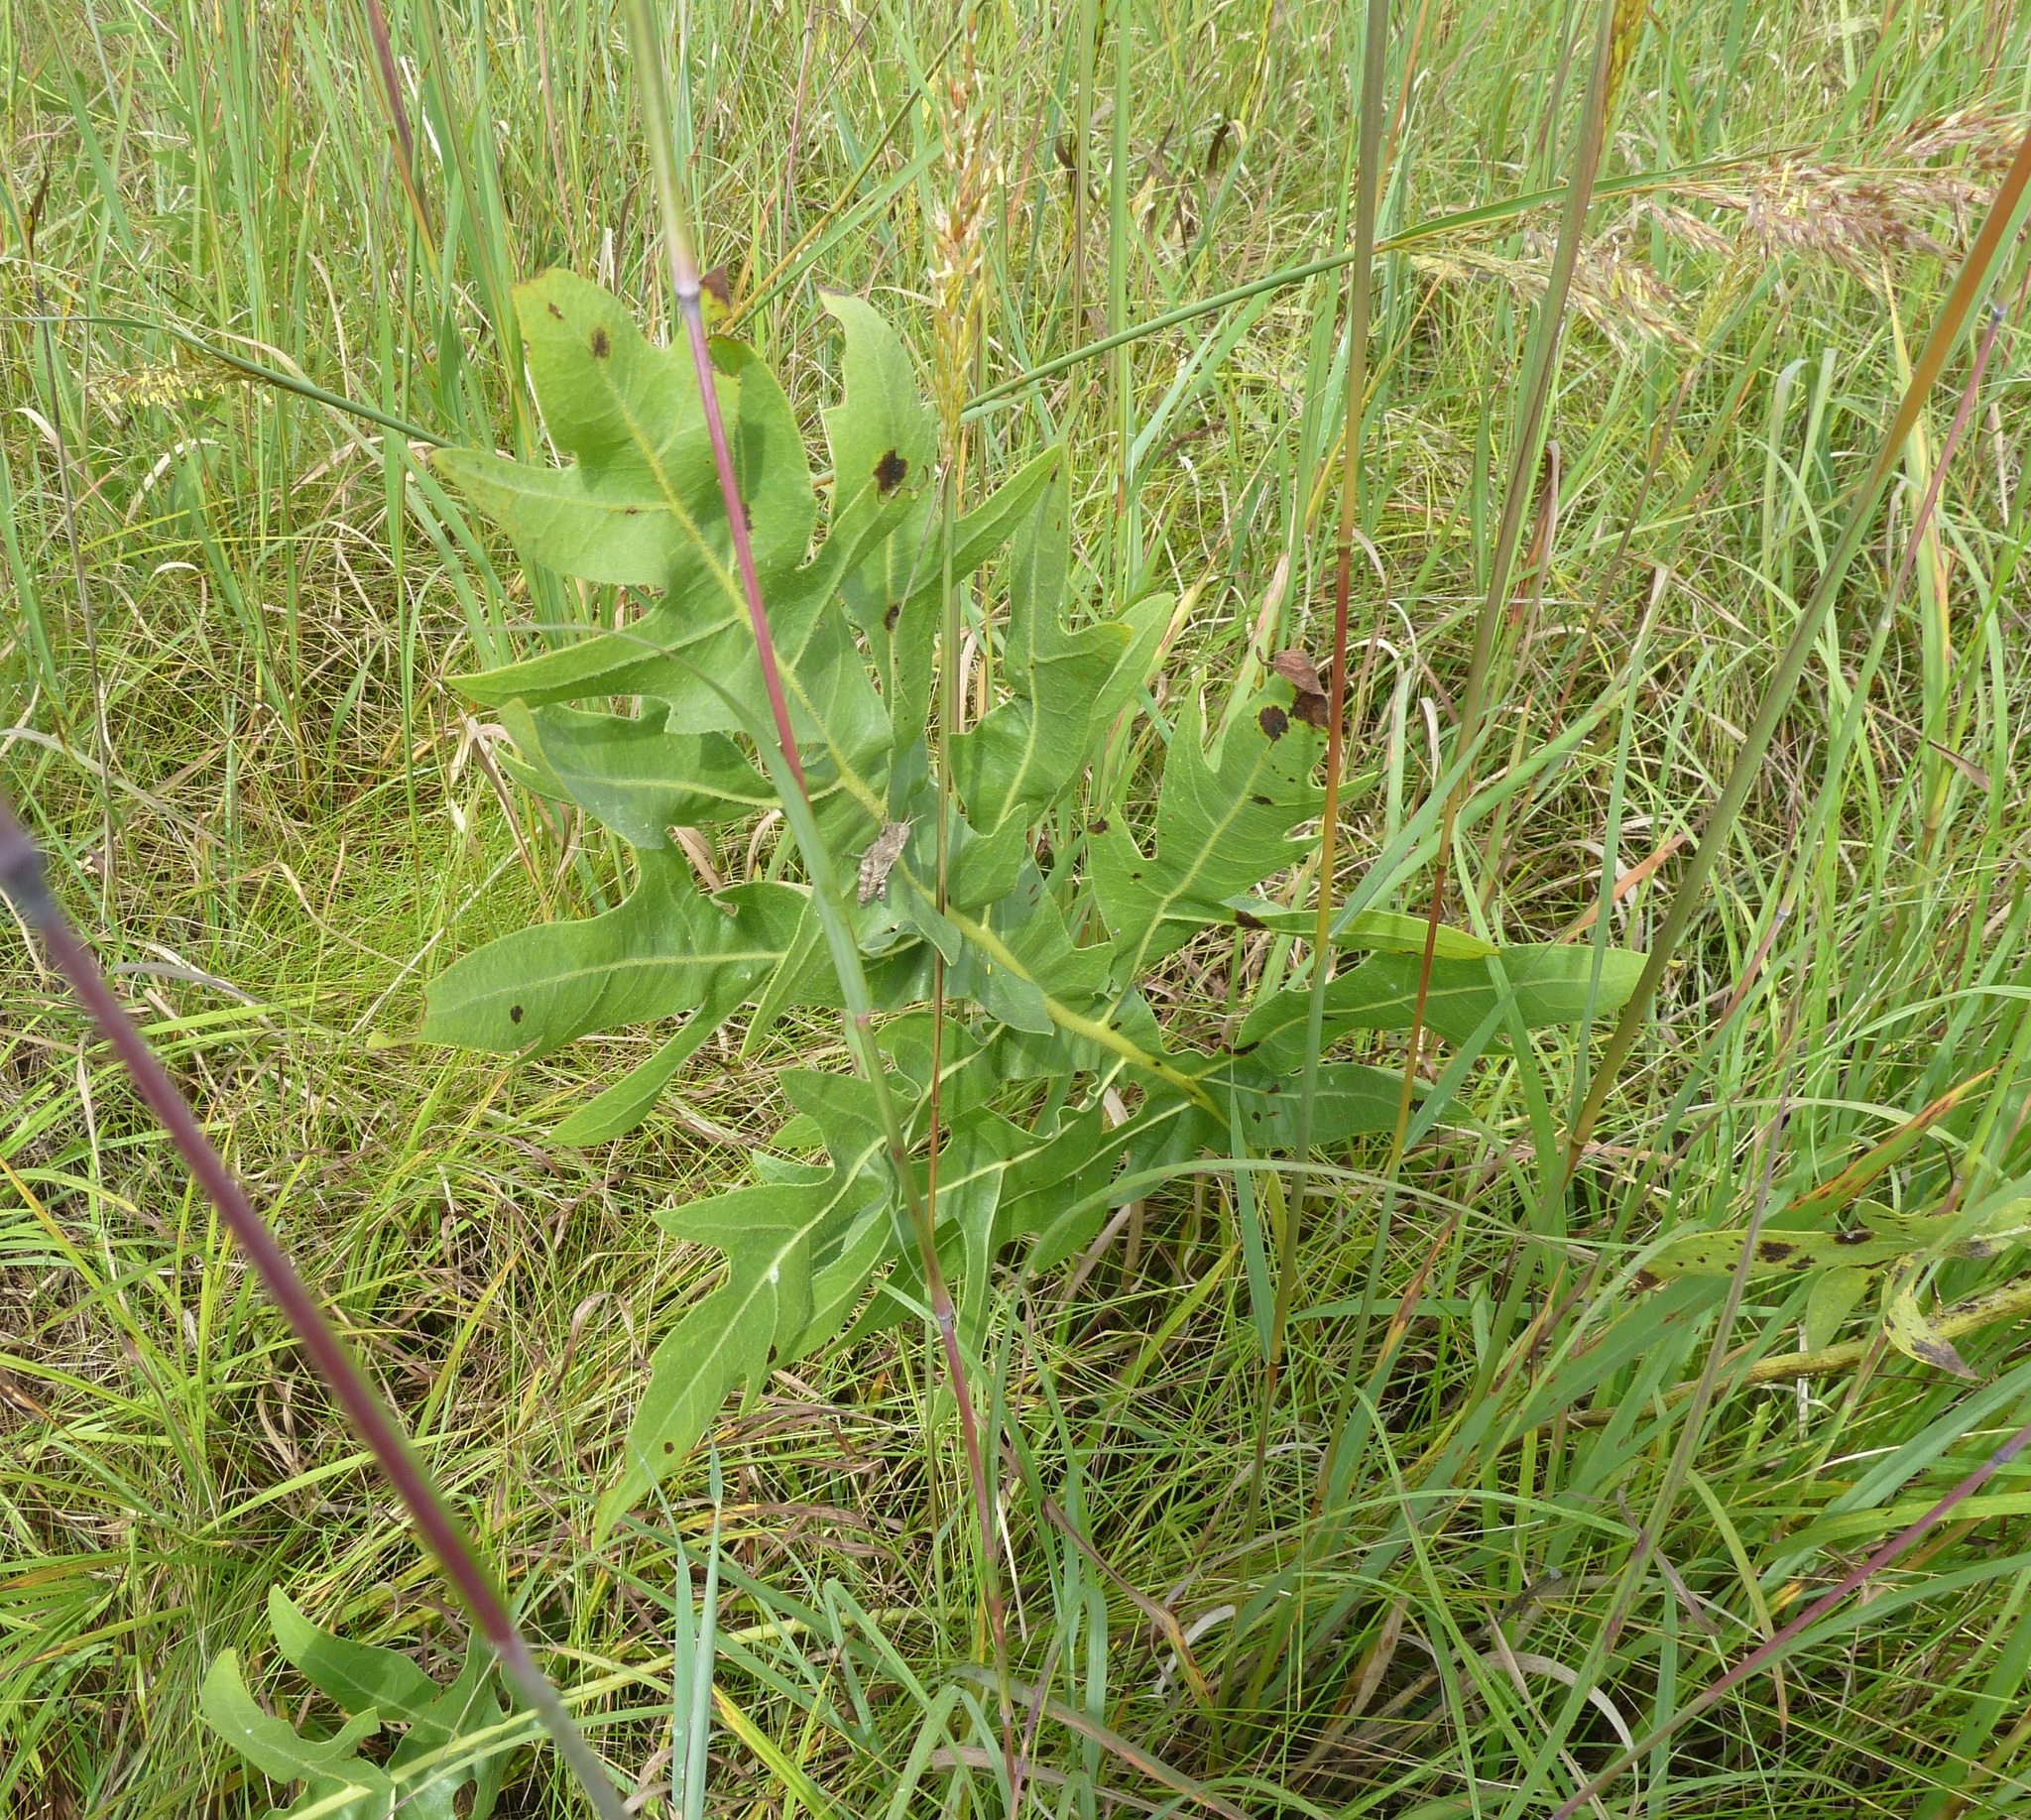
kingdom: Plantae
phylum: Tracheophyta
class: Magnoliopsida
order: Asterales
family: Asteraceae
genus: Silphium
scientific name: Silphium laciniatum
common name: Polarplant
